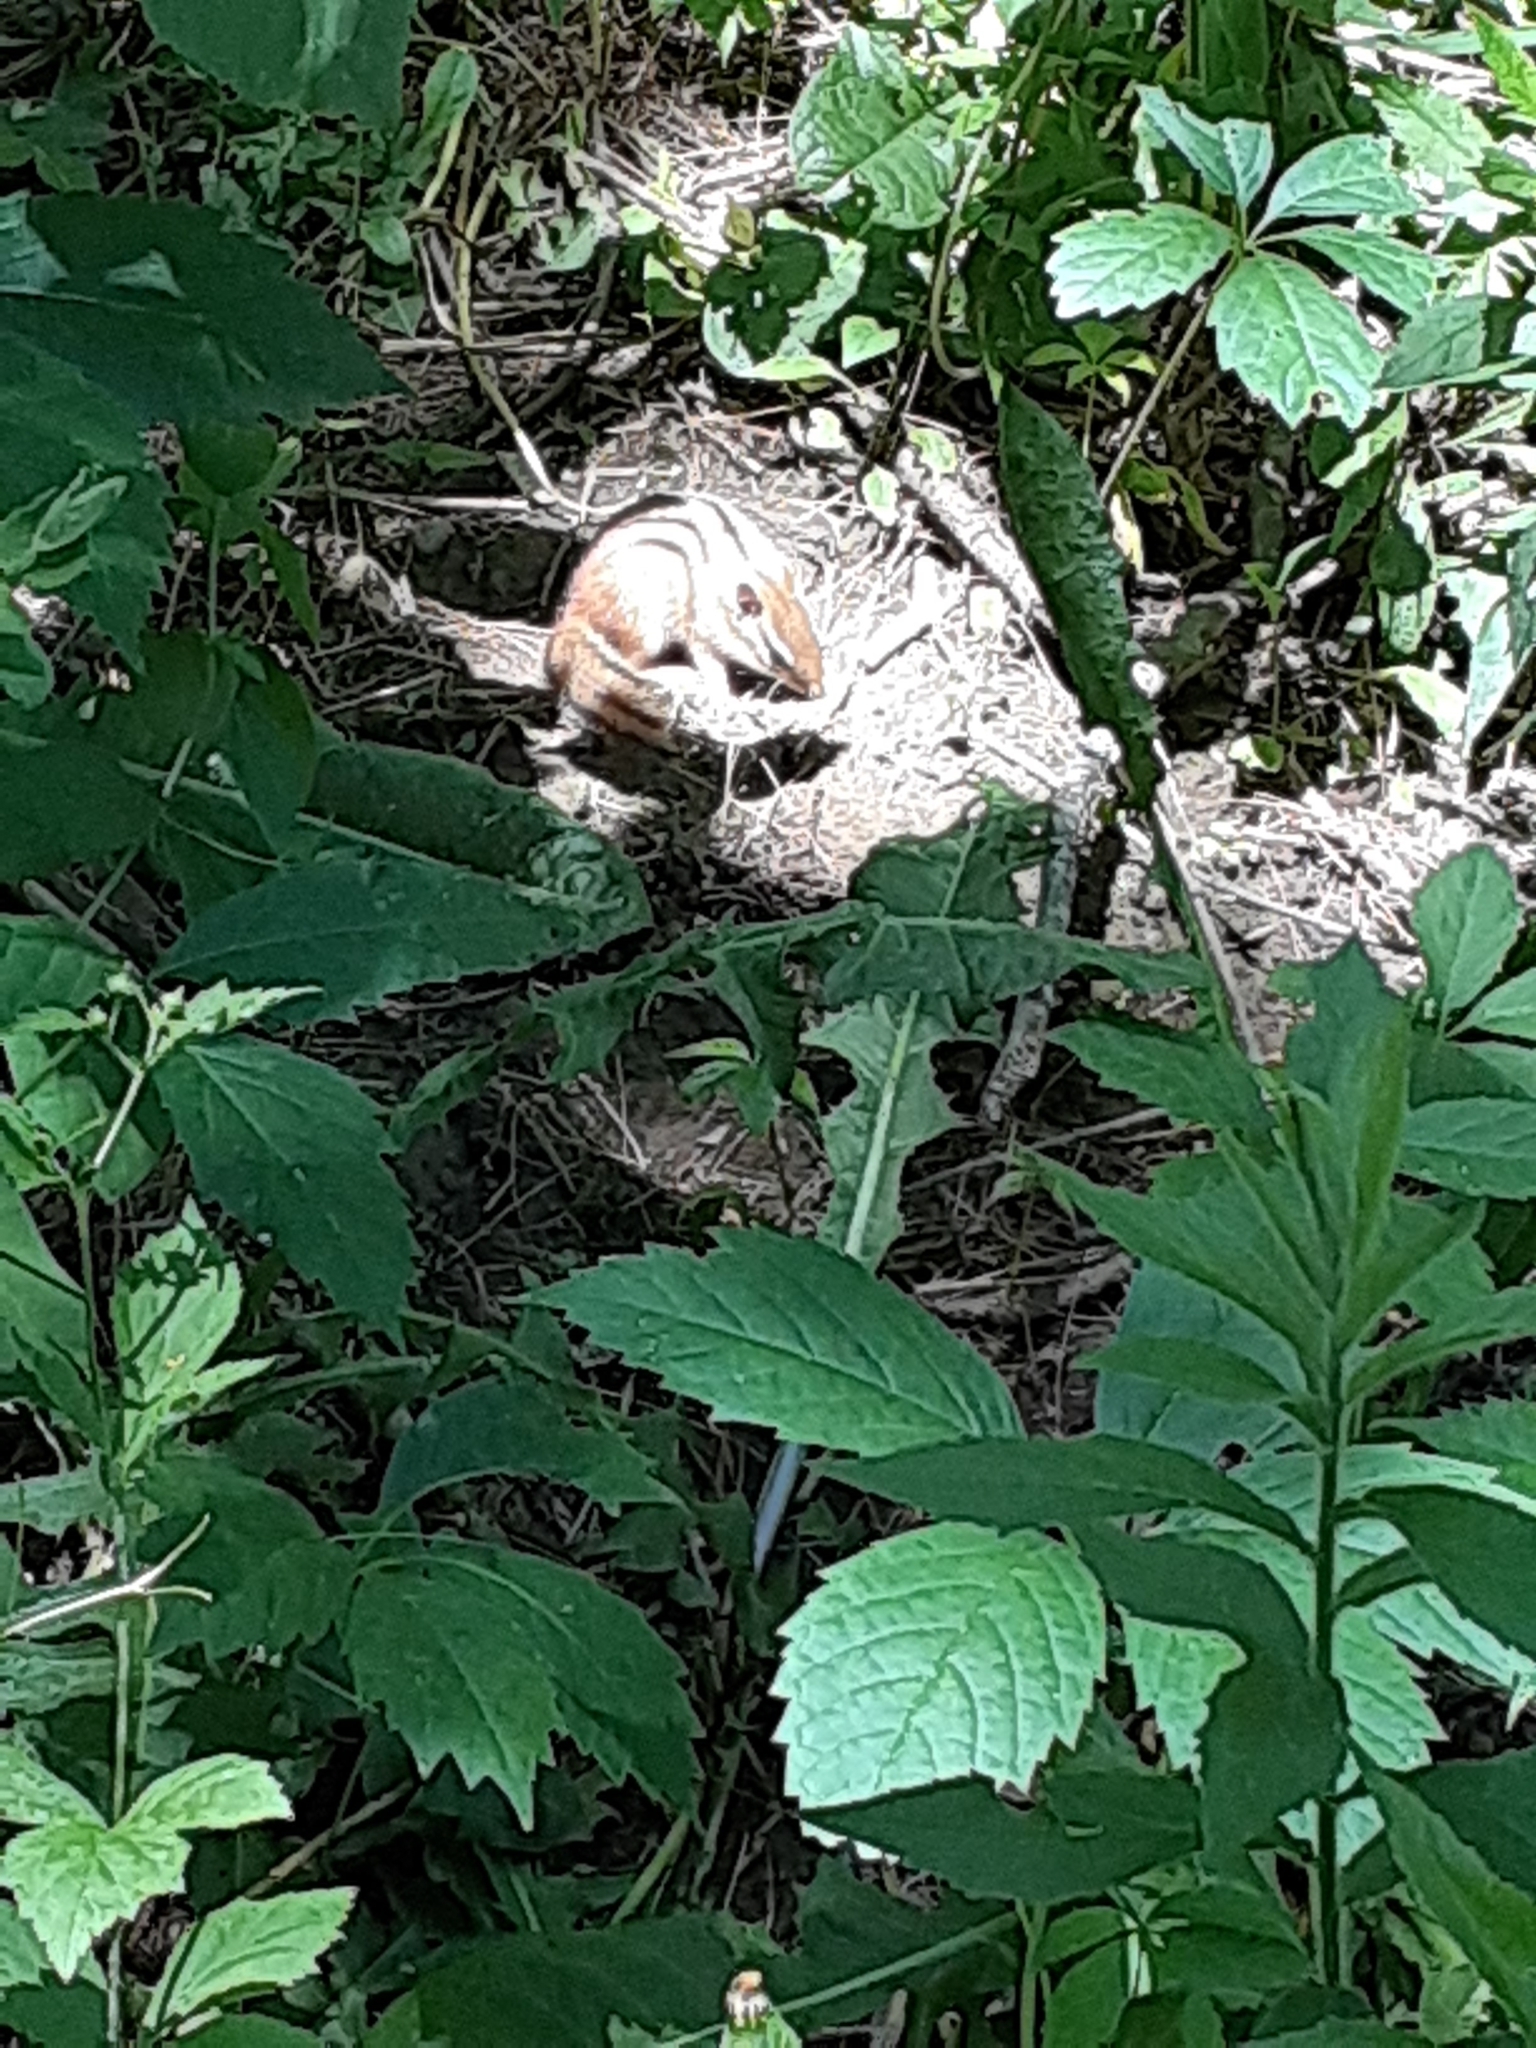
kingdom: Animalia
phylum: Chordata
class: Mammalia
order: Rodentia
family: Sciuridae
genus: Tamias
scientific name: Tamias striatus
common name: Eastern chipmunk
